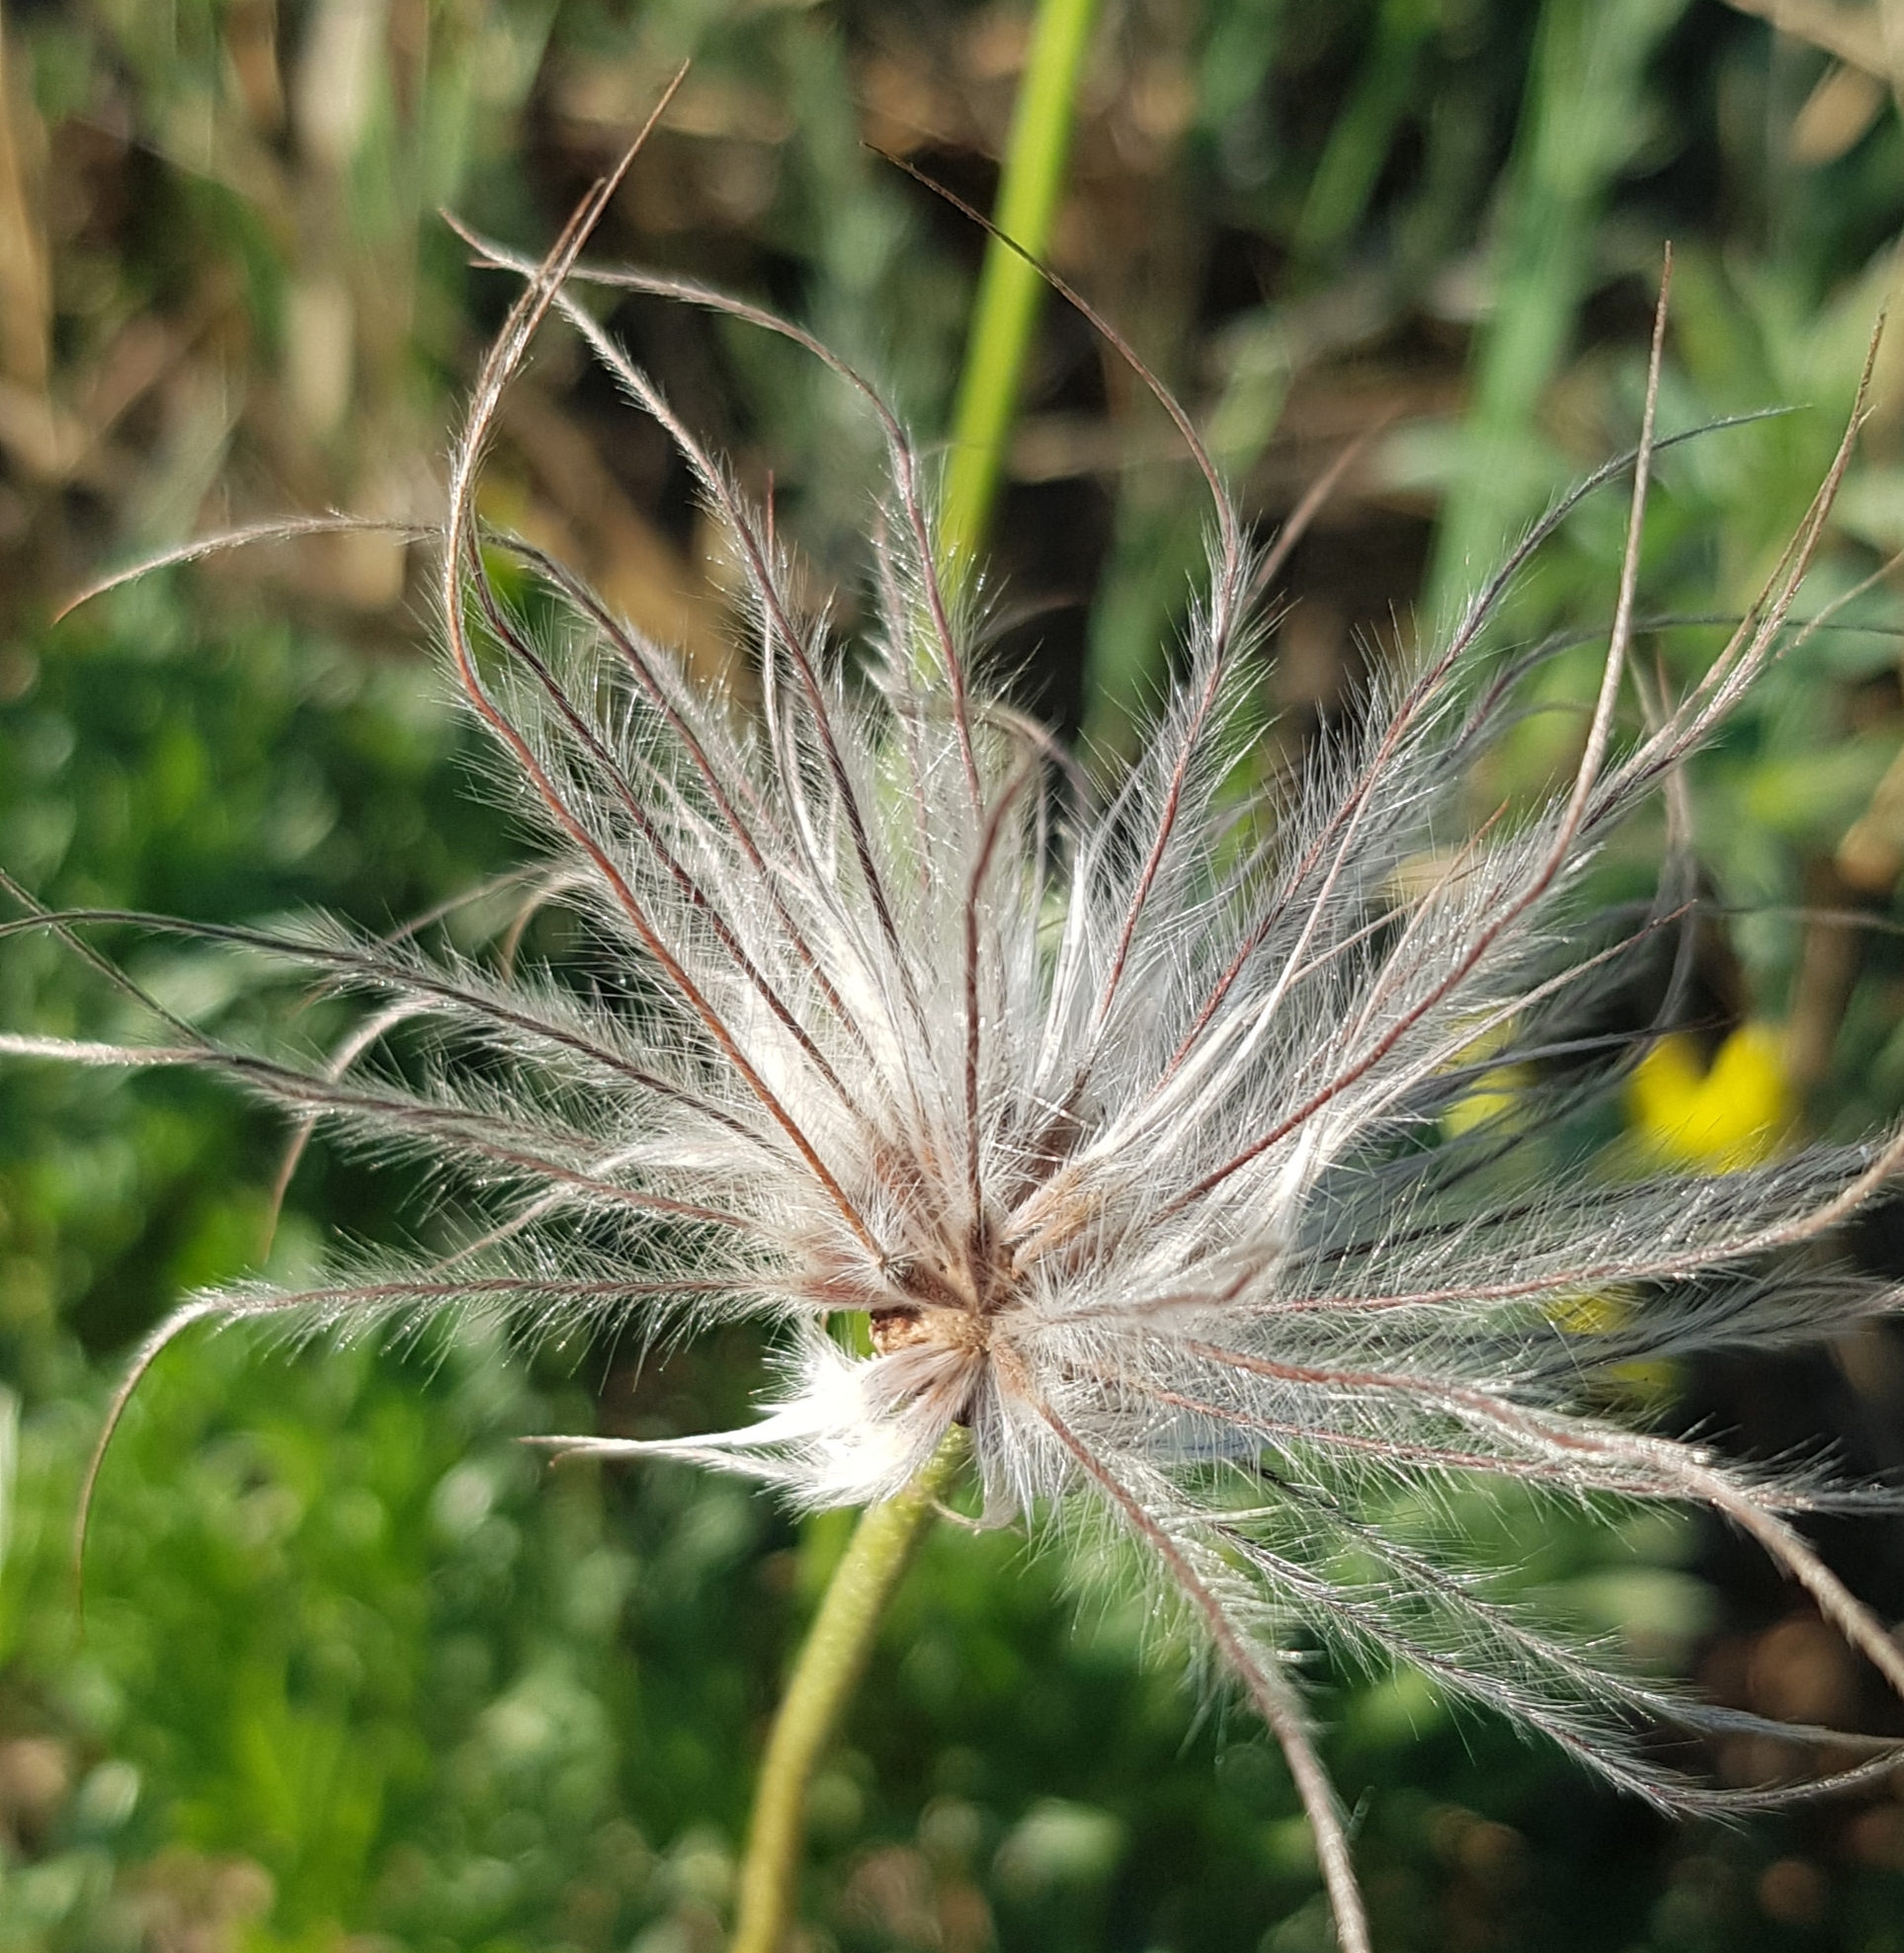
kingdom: Plantae
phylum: Tracheophyta
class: Magnoliopsida
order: Ranunculales
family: Ranunculaceae
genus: Pulsatilla
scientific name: Pulsatilla turczaninovii
